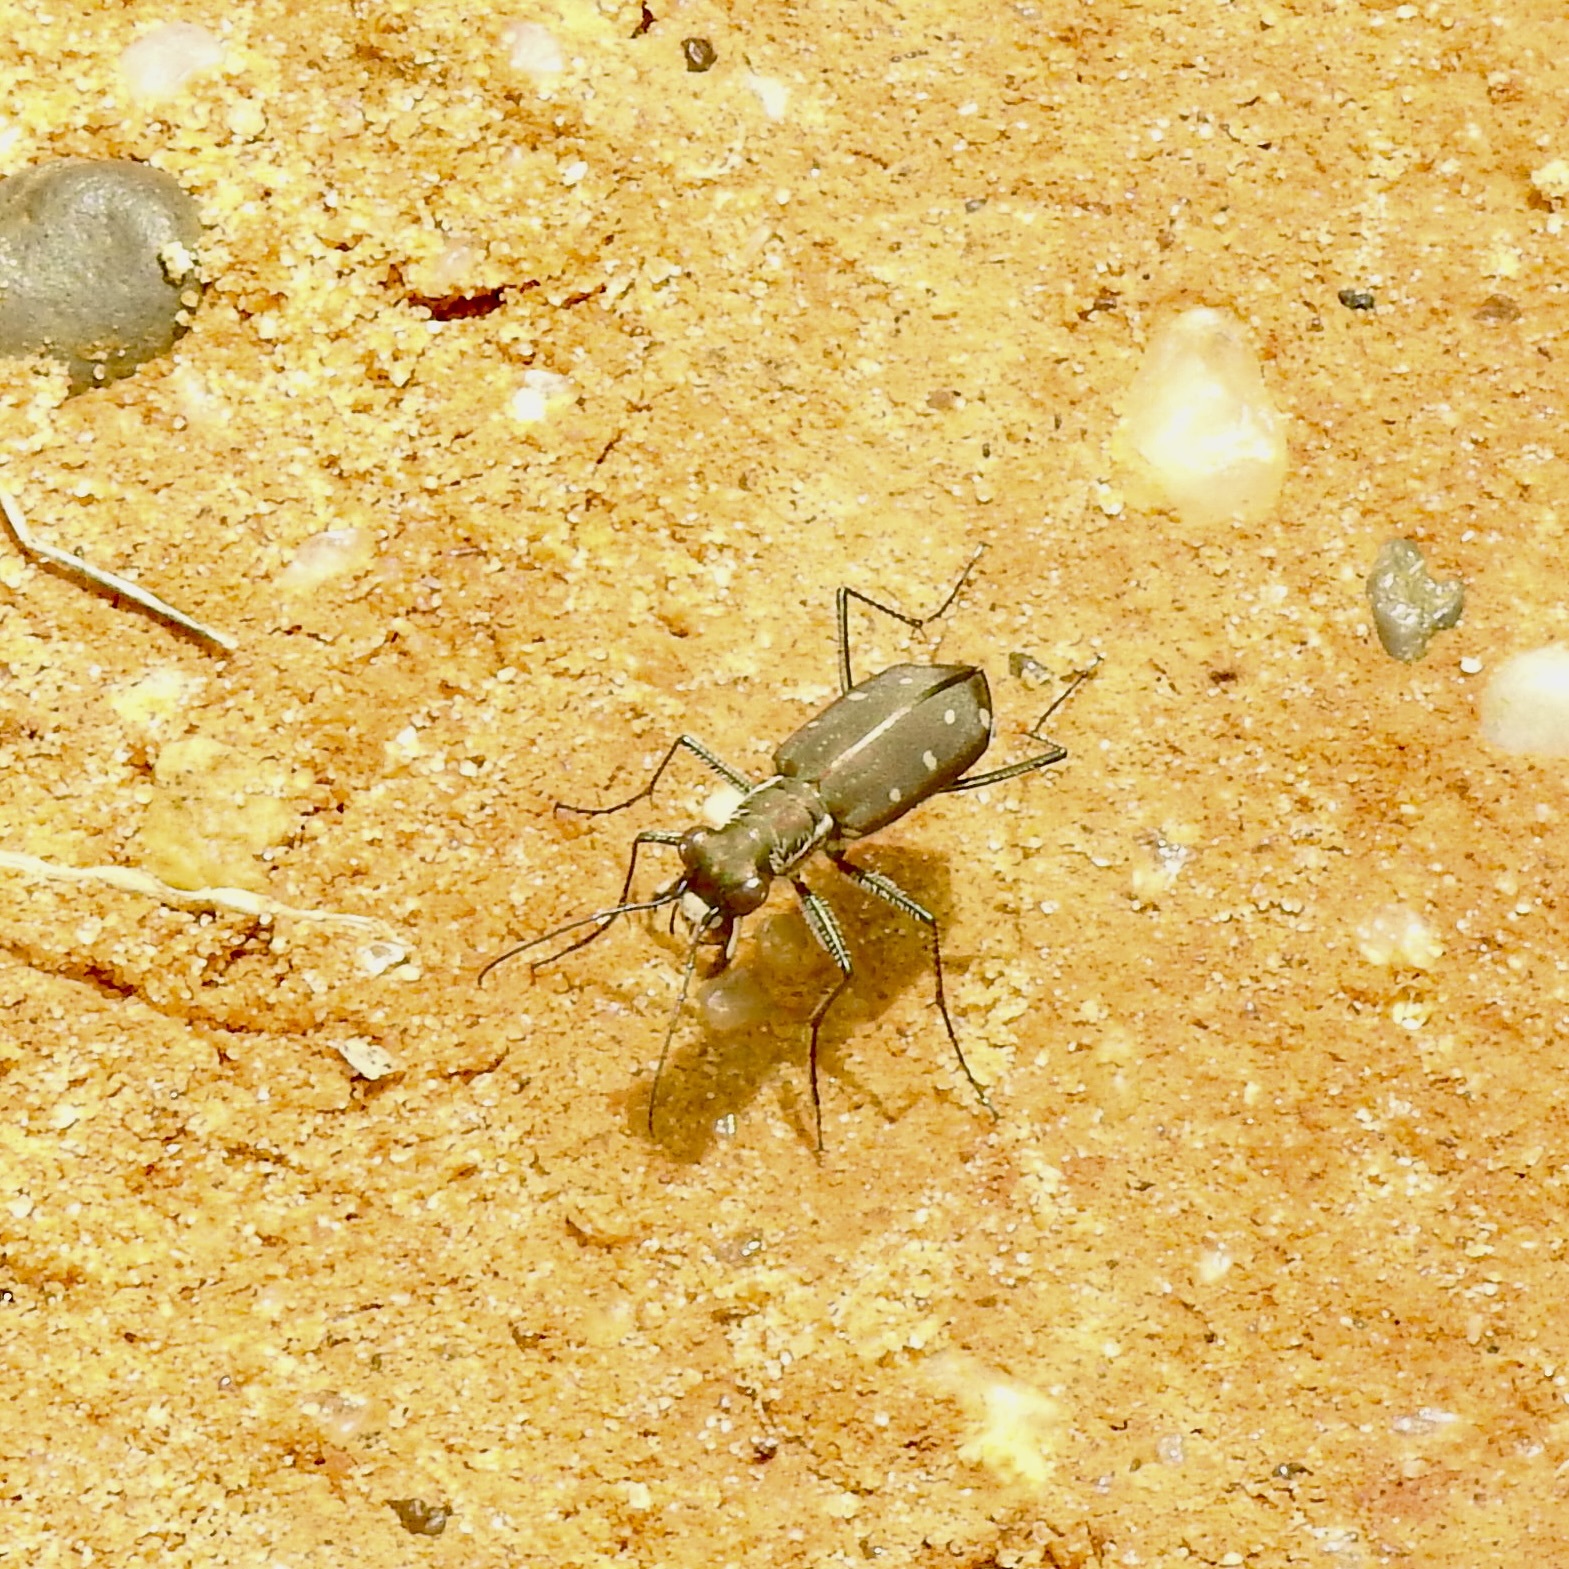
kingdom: Animalia
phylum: Arthropoda
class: Insecta
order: Coleoptera
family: Carabidae
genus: Cicindela
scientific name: Cicindela ocellata
